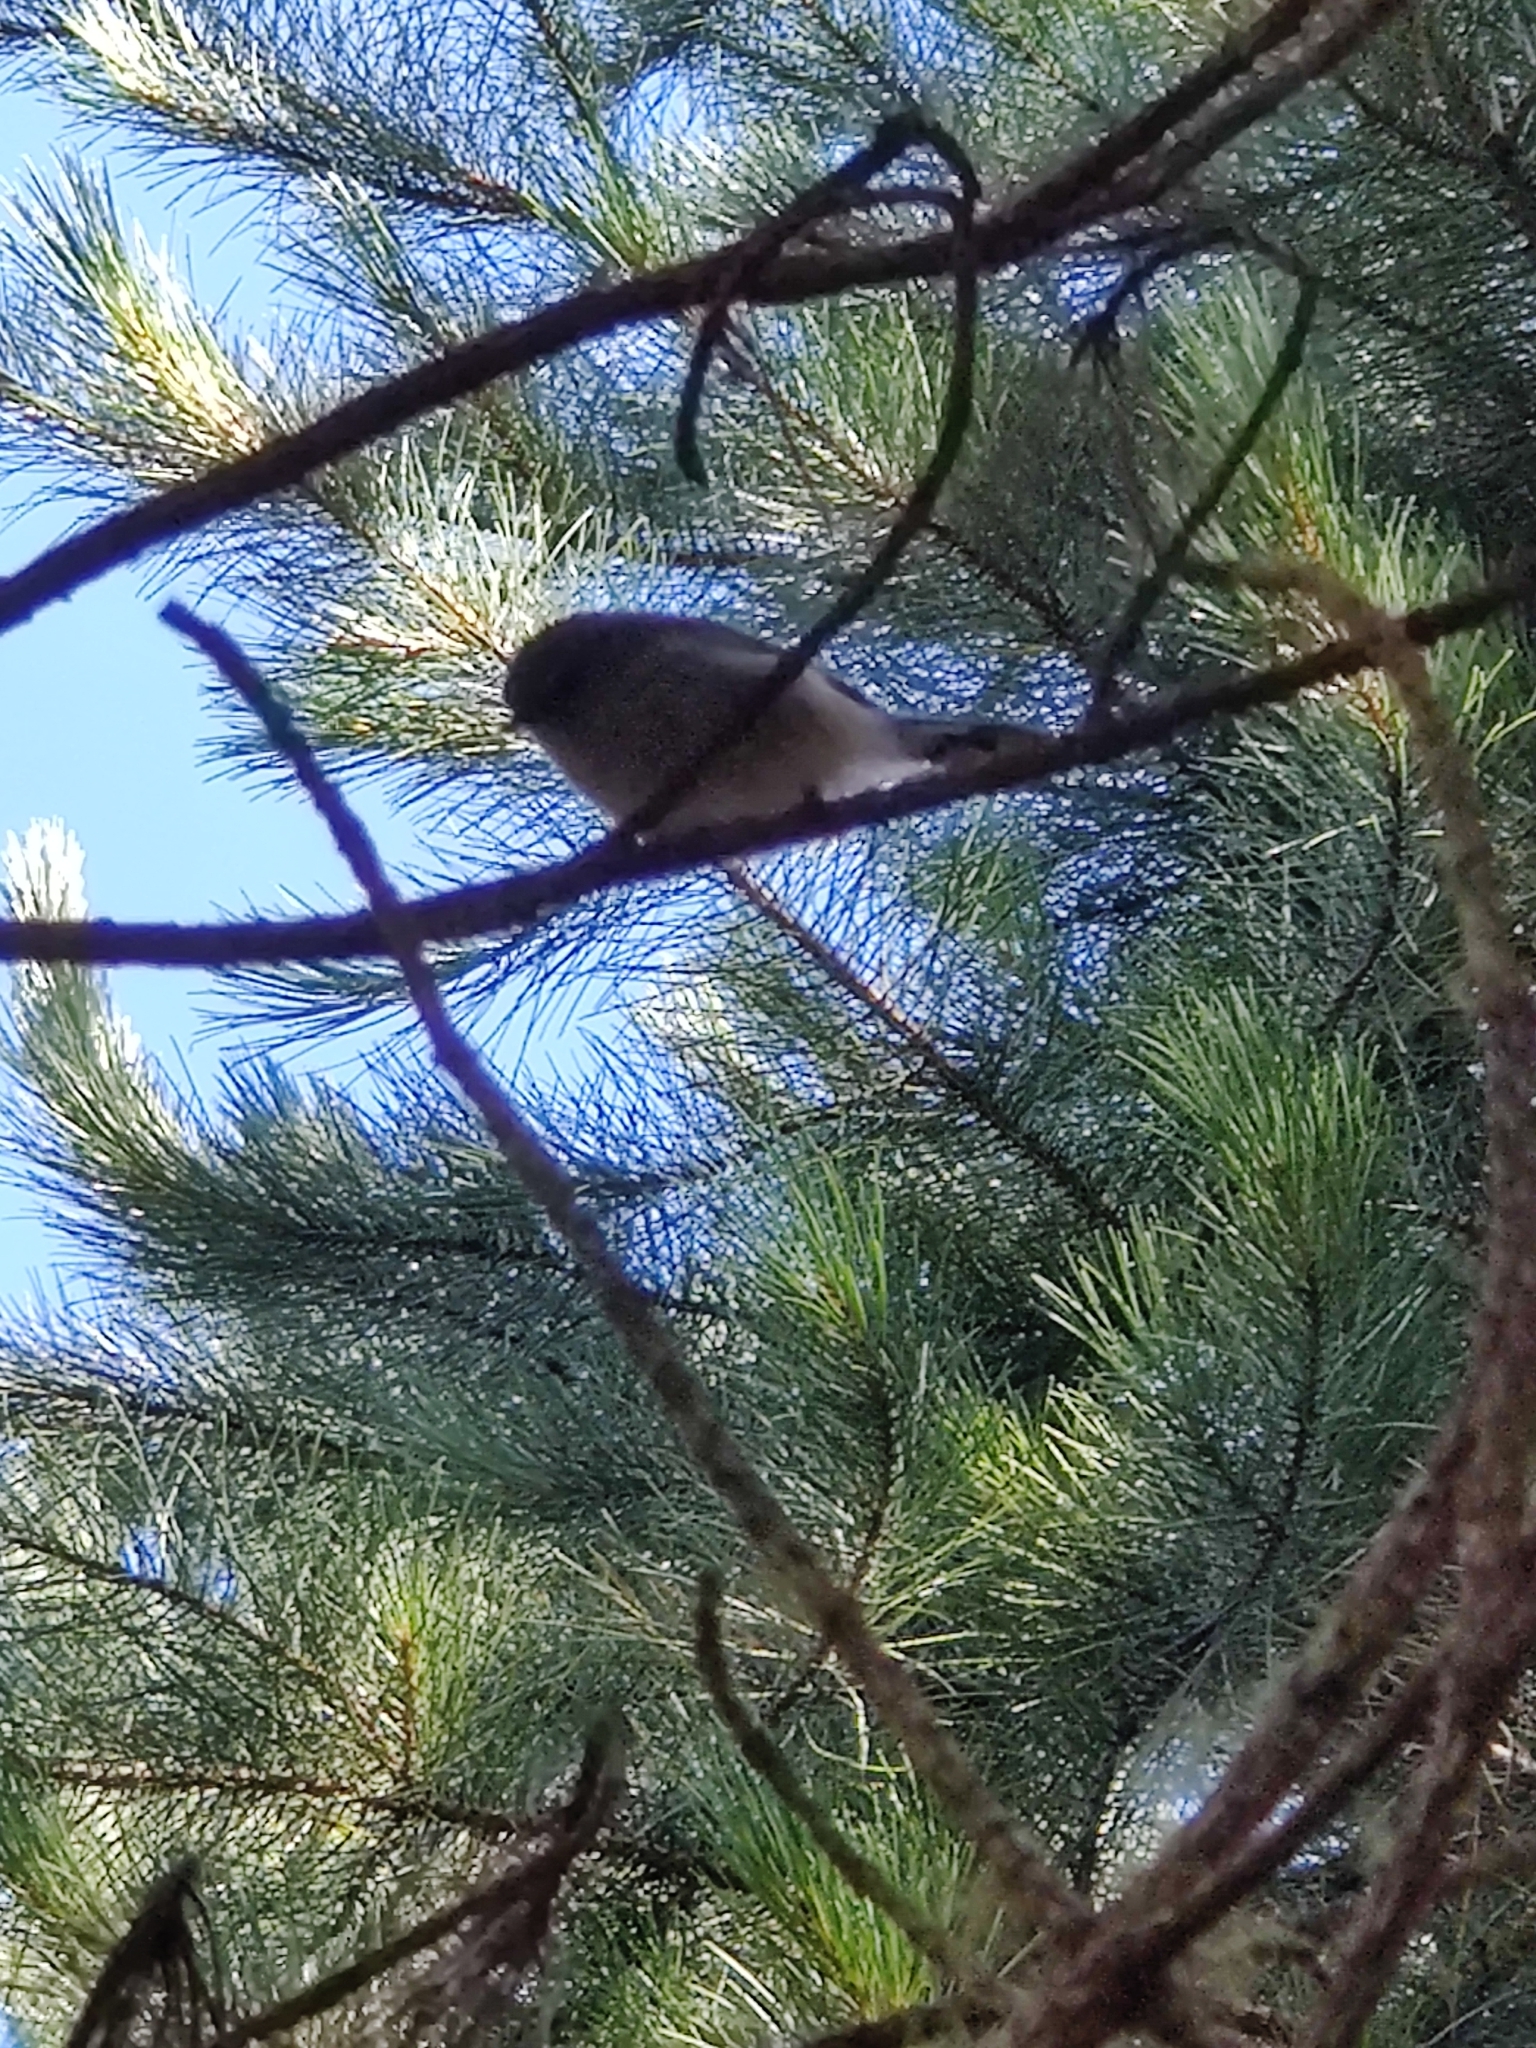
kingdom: Animalia
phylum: Chordata
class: Aves
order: Passeriformes
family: Petroicidae
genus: Petroica
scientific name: Petroica macrocephala
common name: Tomtit
